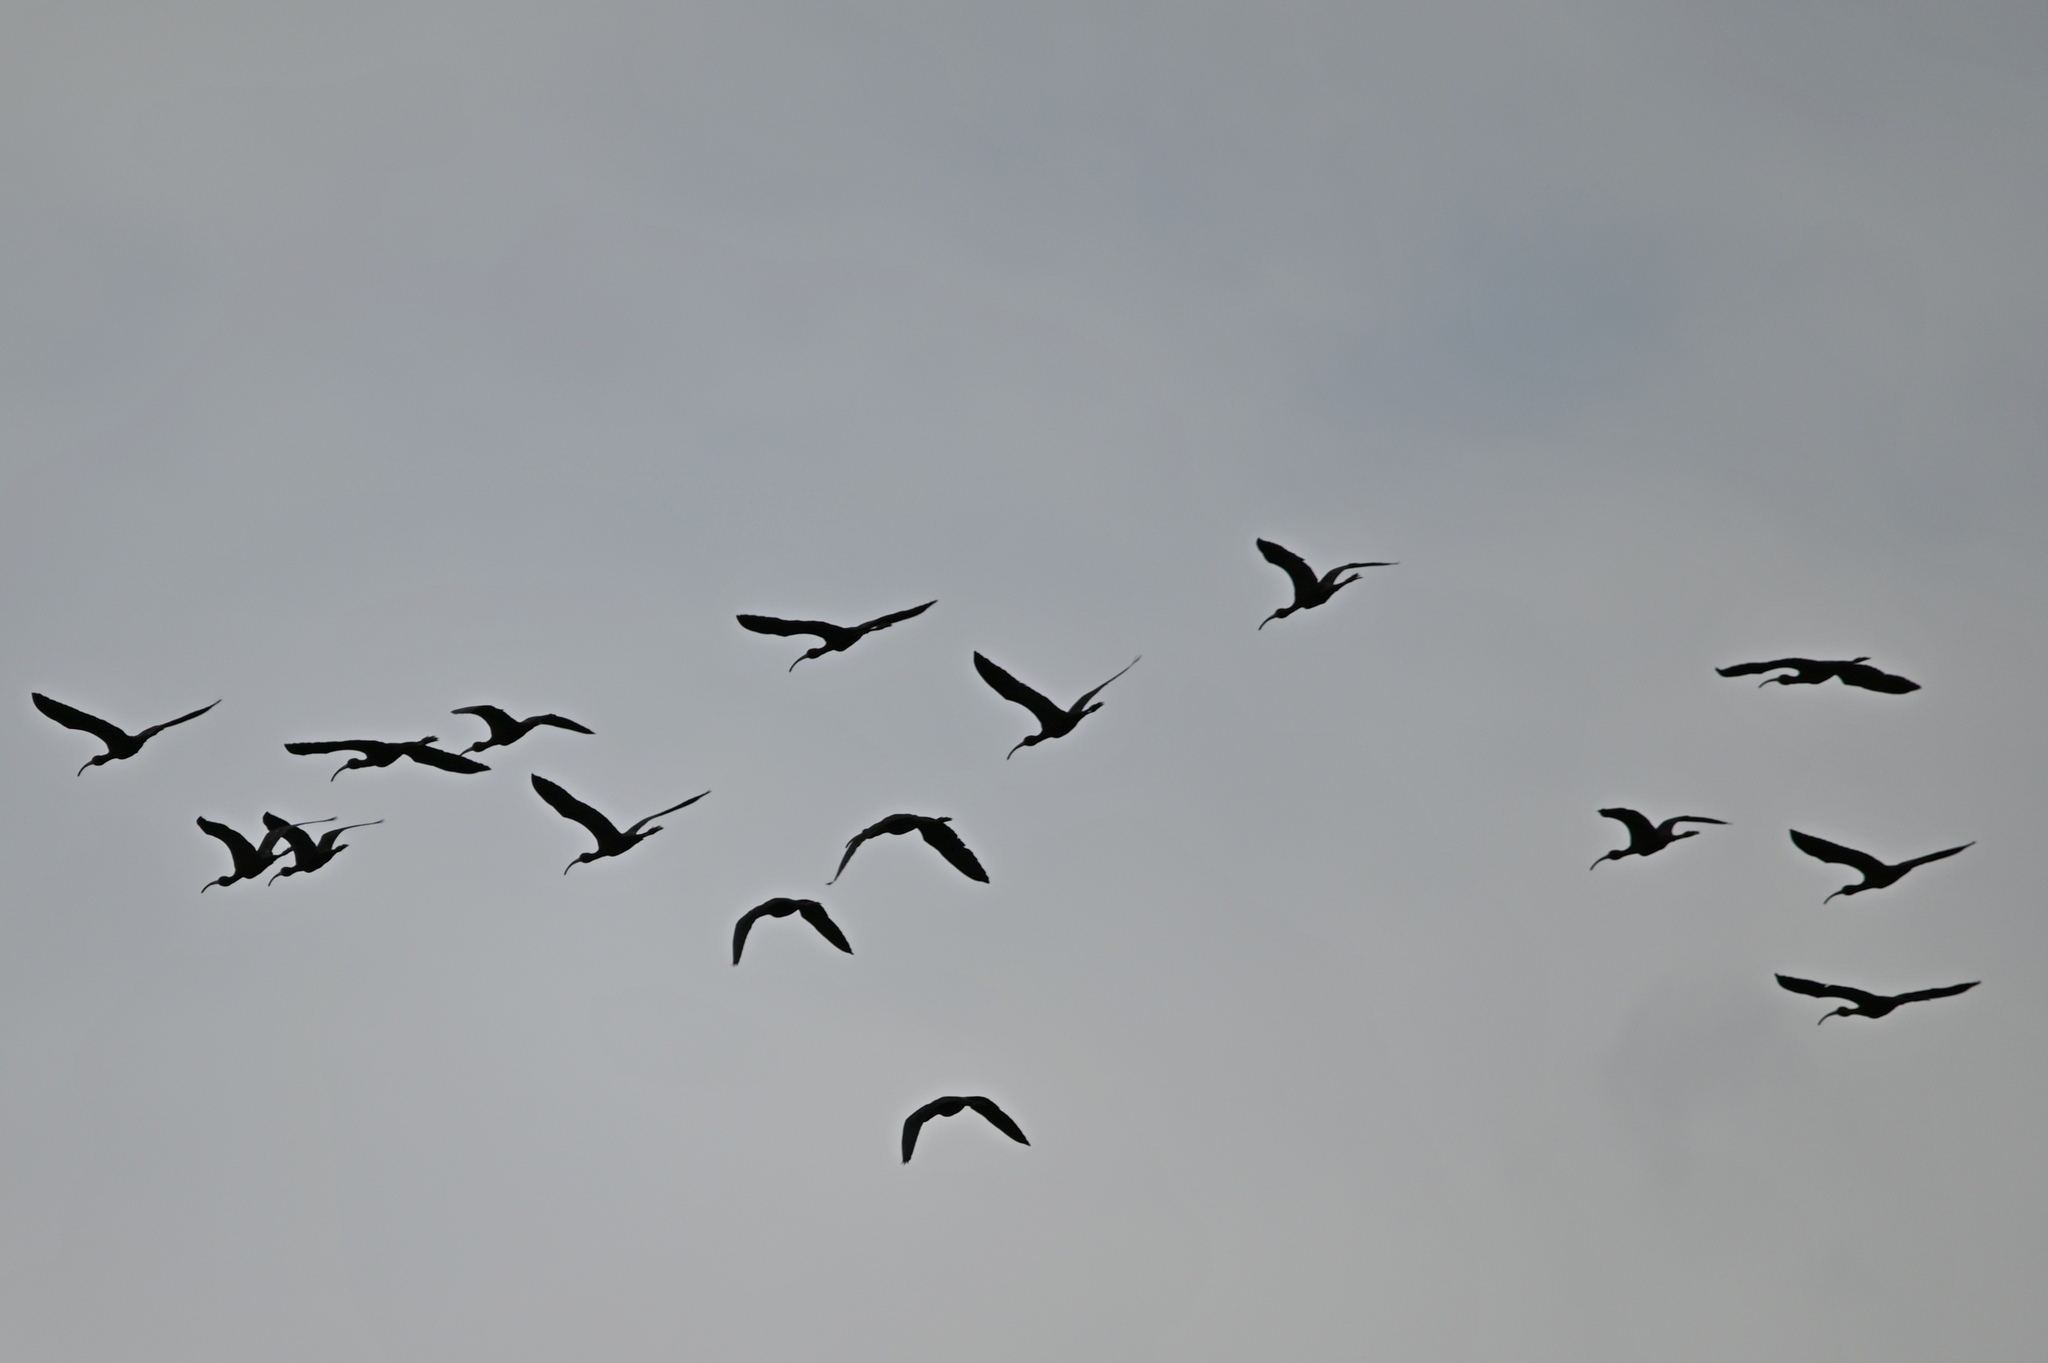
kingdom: Animalia
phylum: Chordata
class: Aves
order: Pelecaniformes
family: Threskiornithidae
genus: Plegadis
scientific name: Plegadis chihi
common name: White-faced ibis
